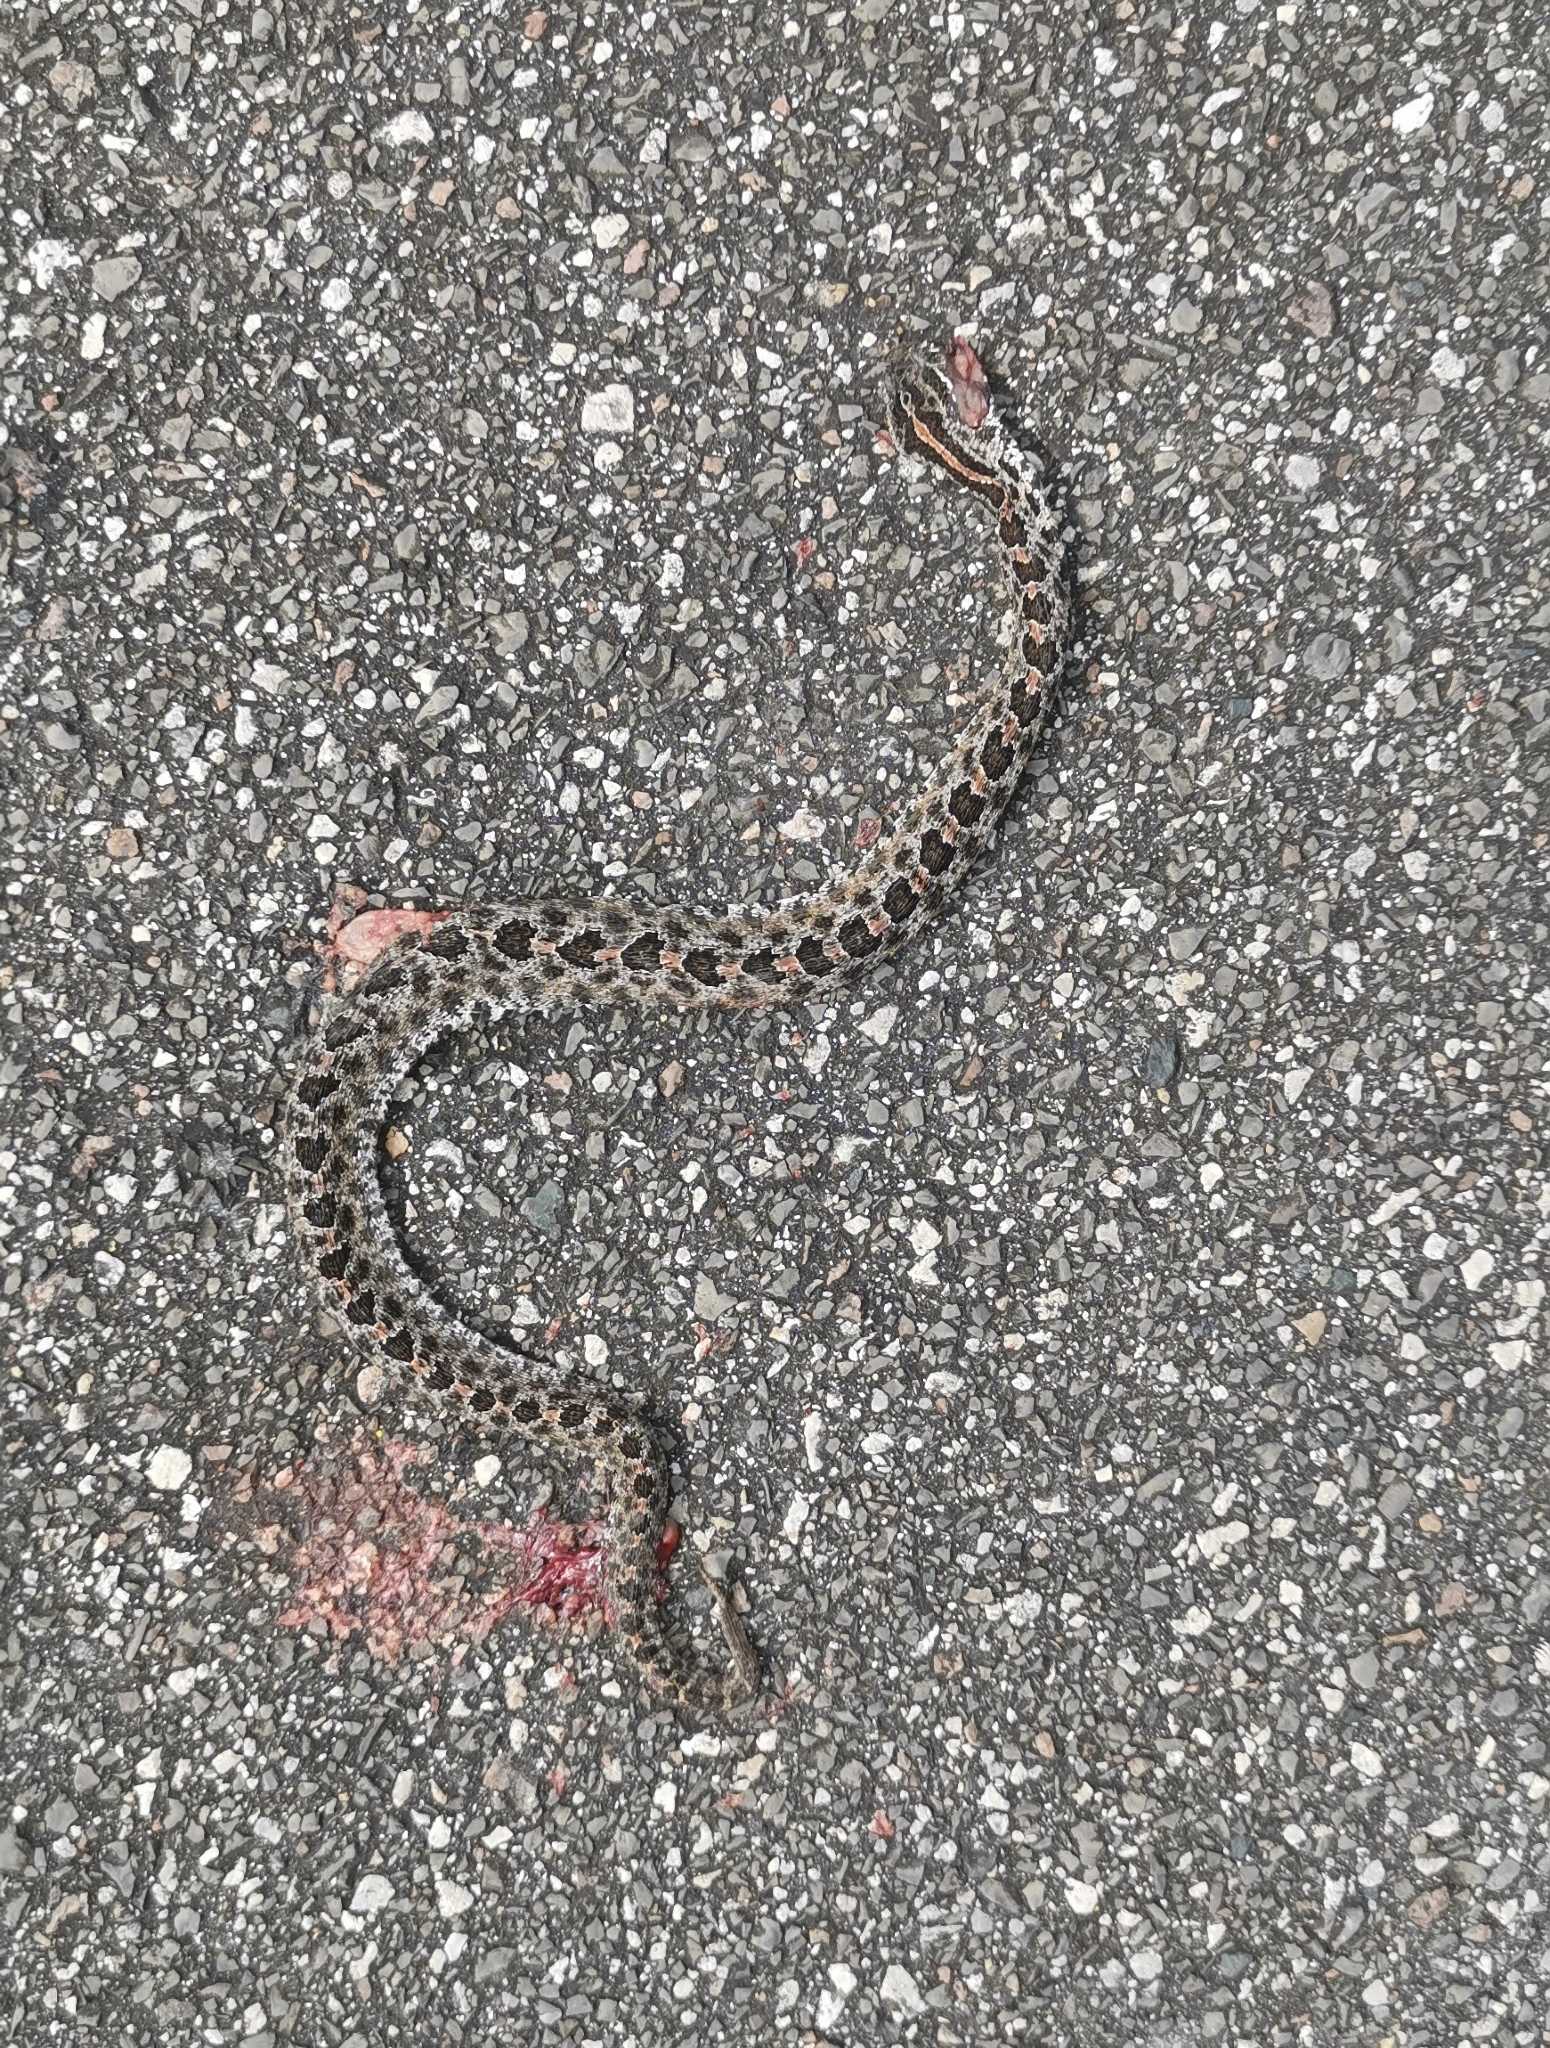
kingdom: Animalia
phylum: Chordata
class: Squamata
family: Viperidae
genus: Sistrurus
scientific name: Sistrurus miliarius
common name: Pygmy rattlesnake
